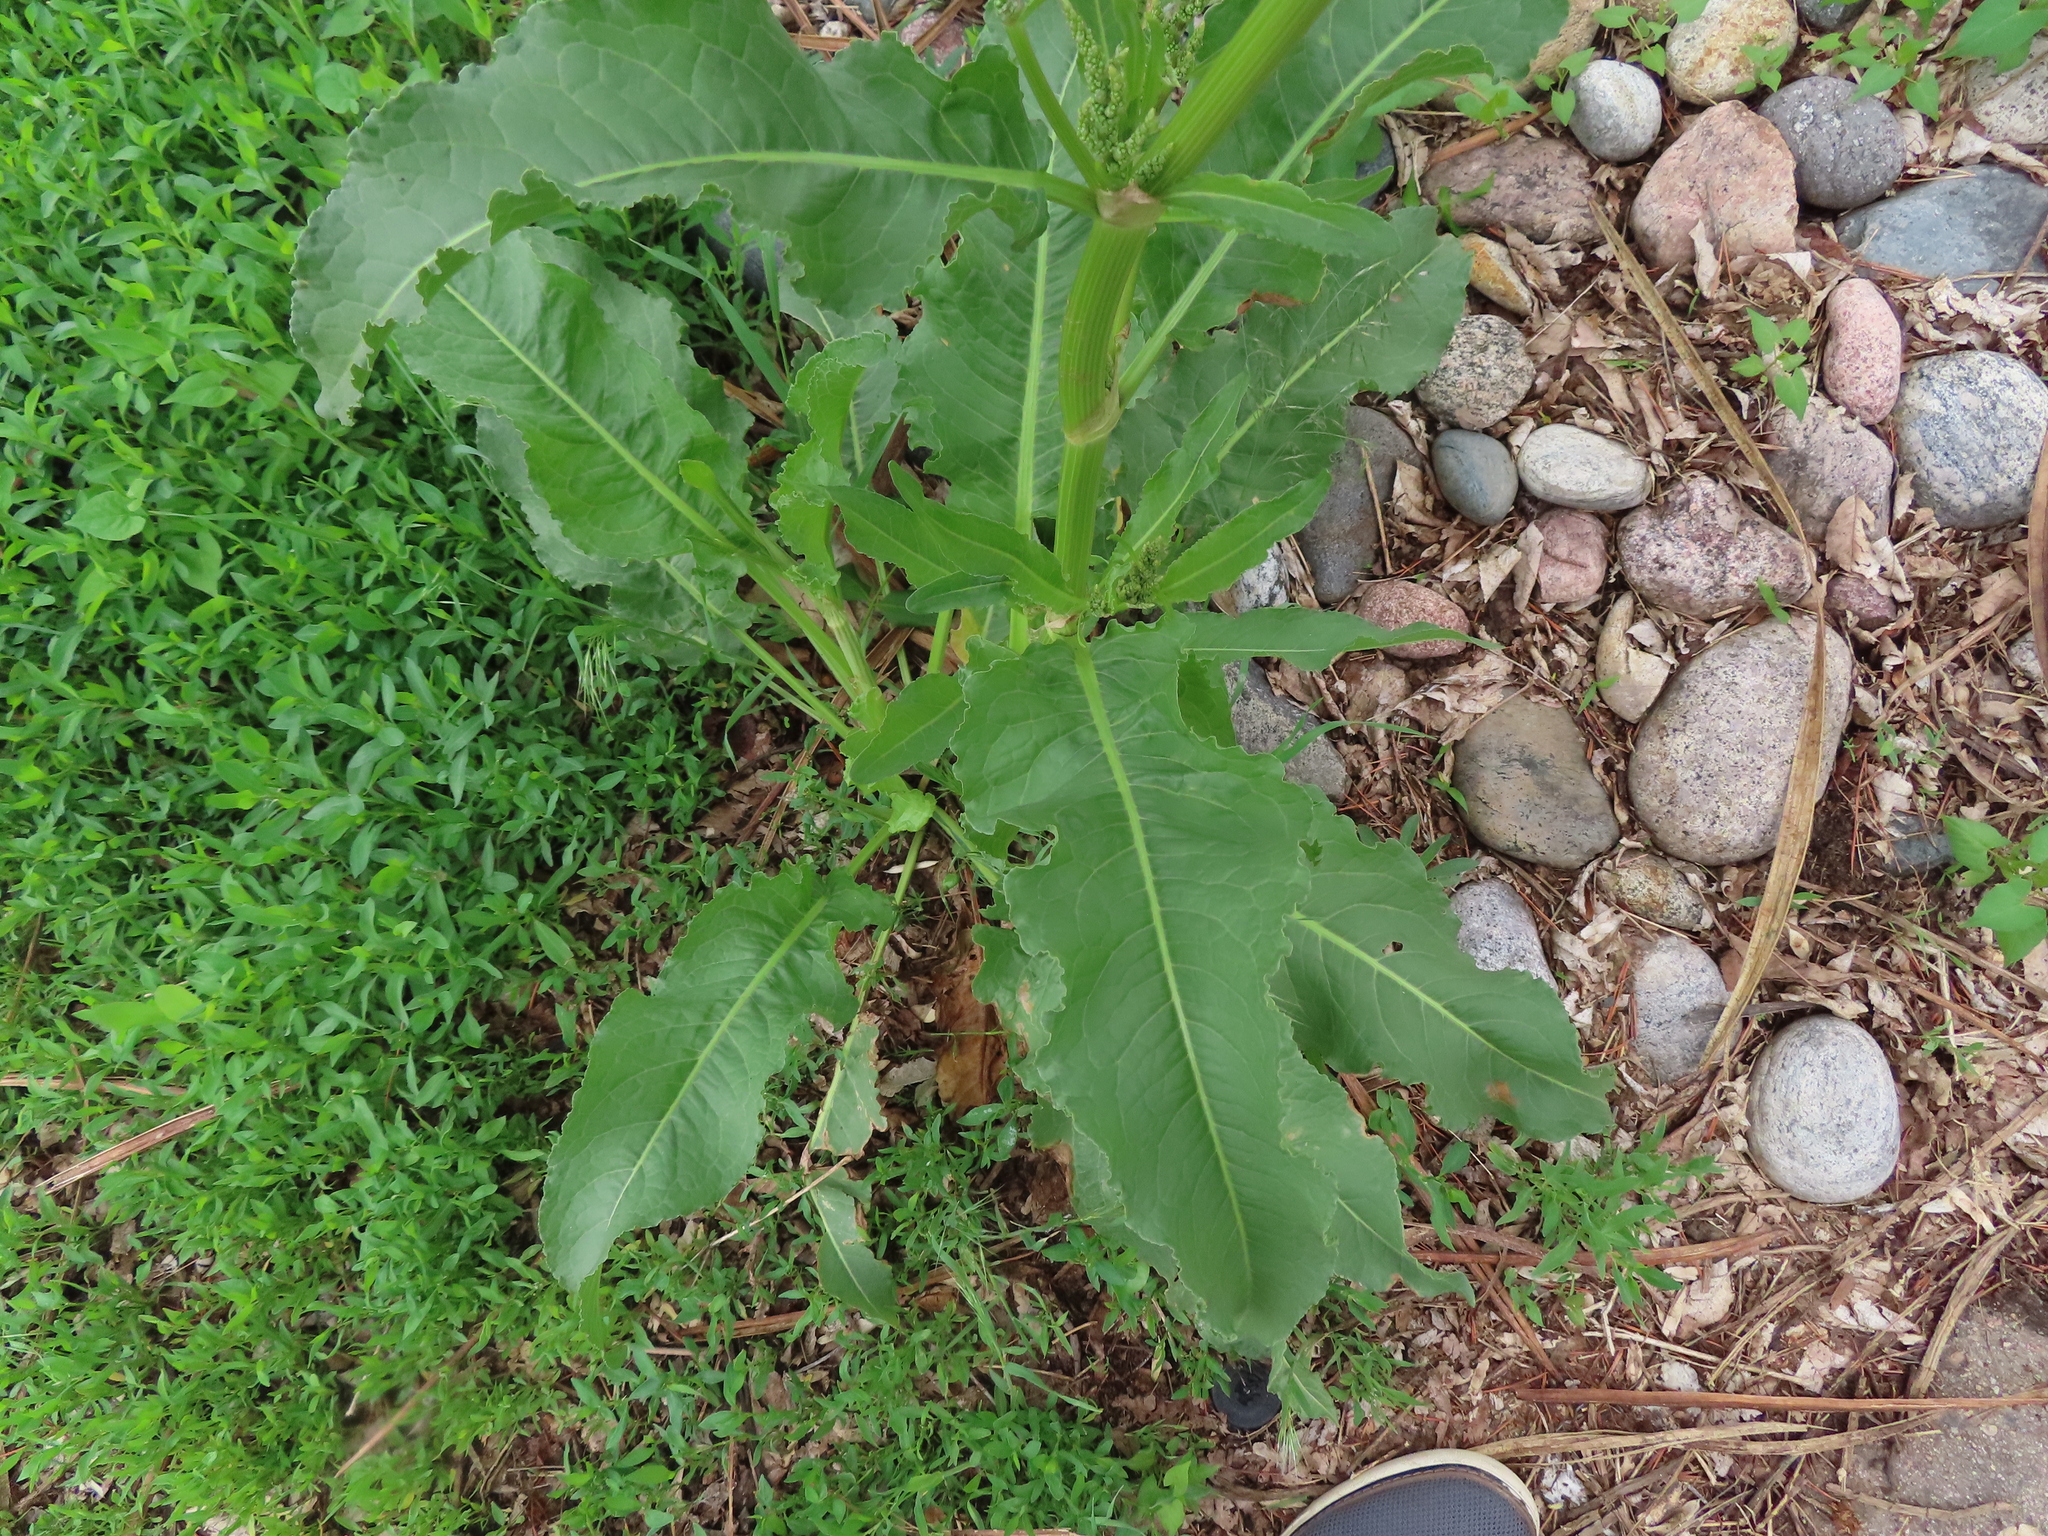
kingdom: Plantae
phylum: Tracheophyta
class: Magnoliopsida
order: Caryophyllales
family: Polygonaceae
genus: Rumex
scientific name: Rumex crispus
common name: Curled dock
